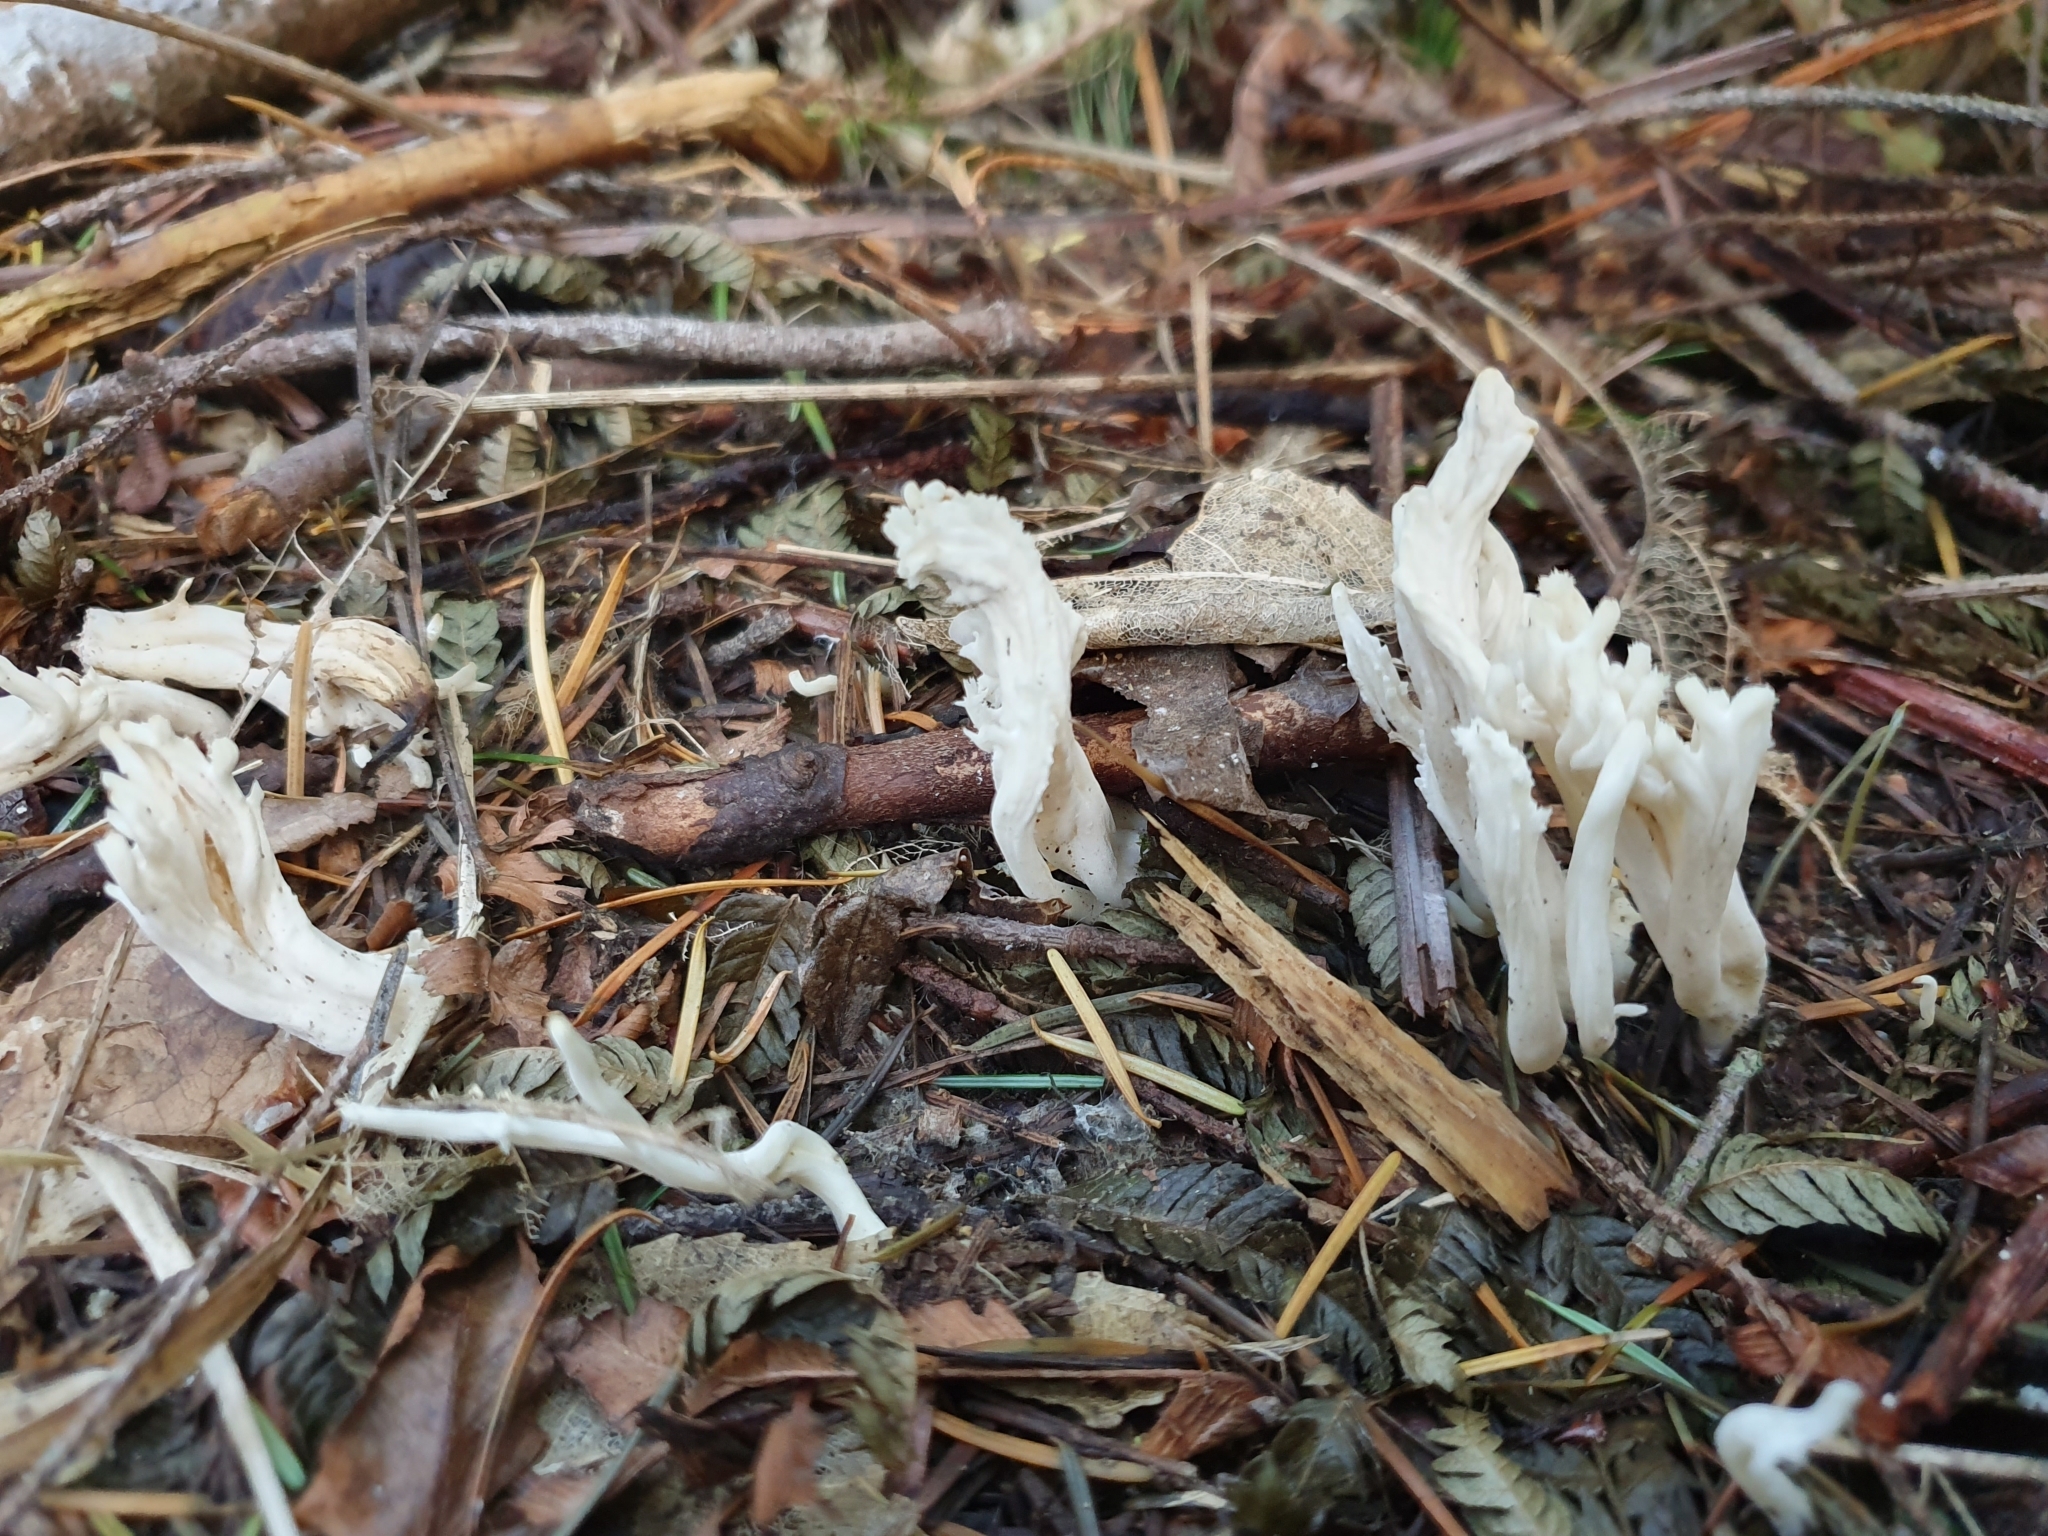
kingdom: Fungi
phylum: Basidiomycota
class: Agaricomycetes
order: Cantharellales
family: Hydnaceae
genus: Clavulina
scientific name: Clavulina rugosa
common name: Wrinkled club
